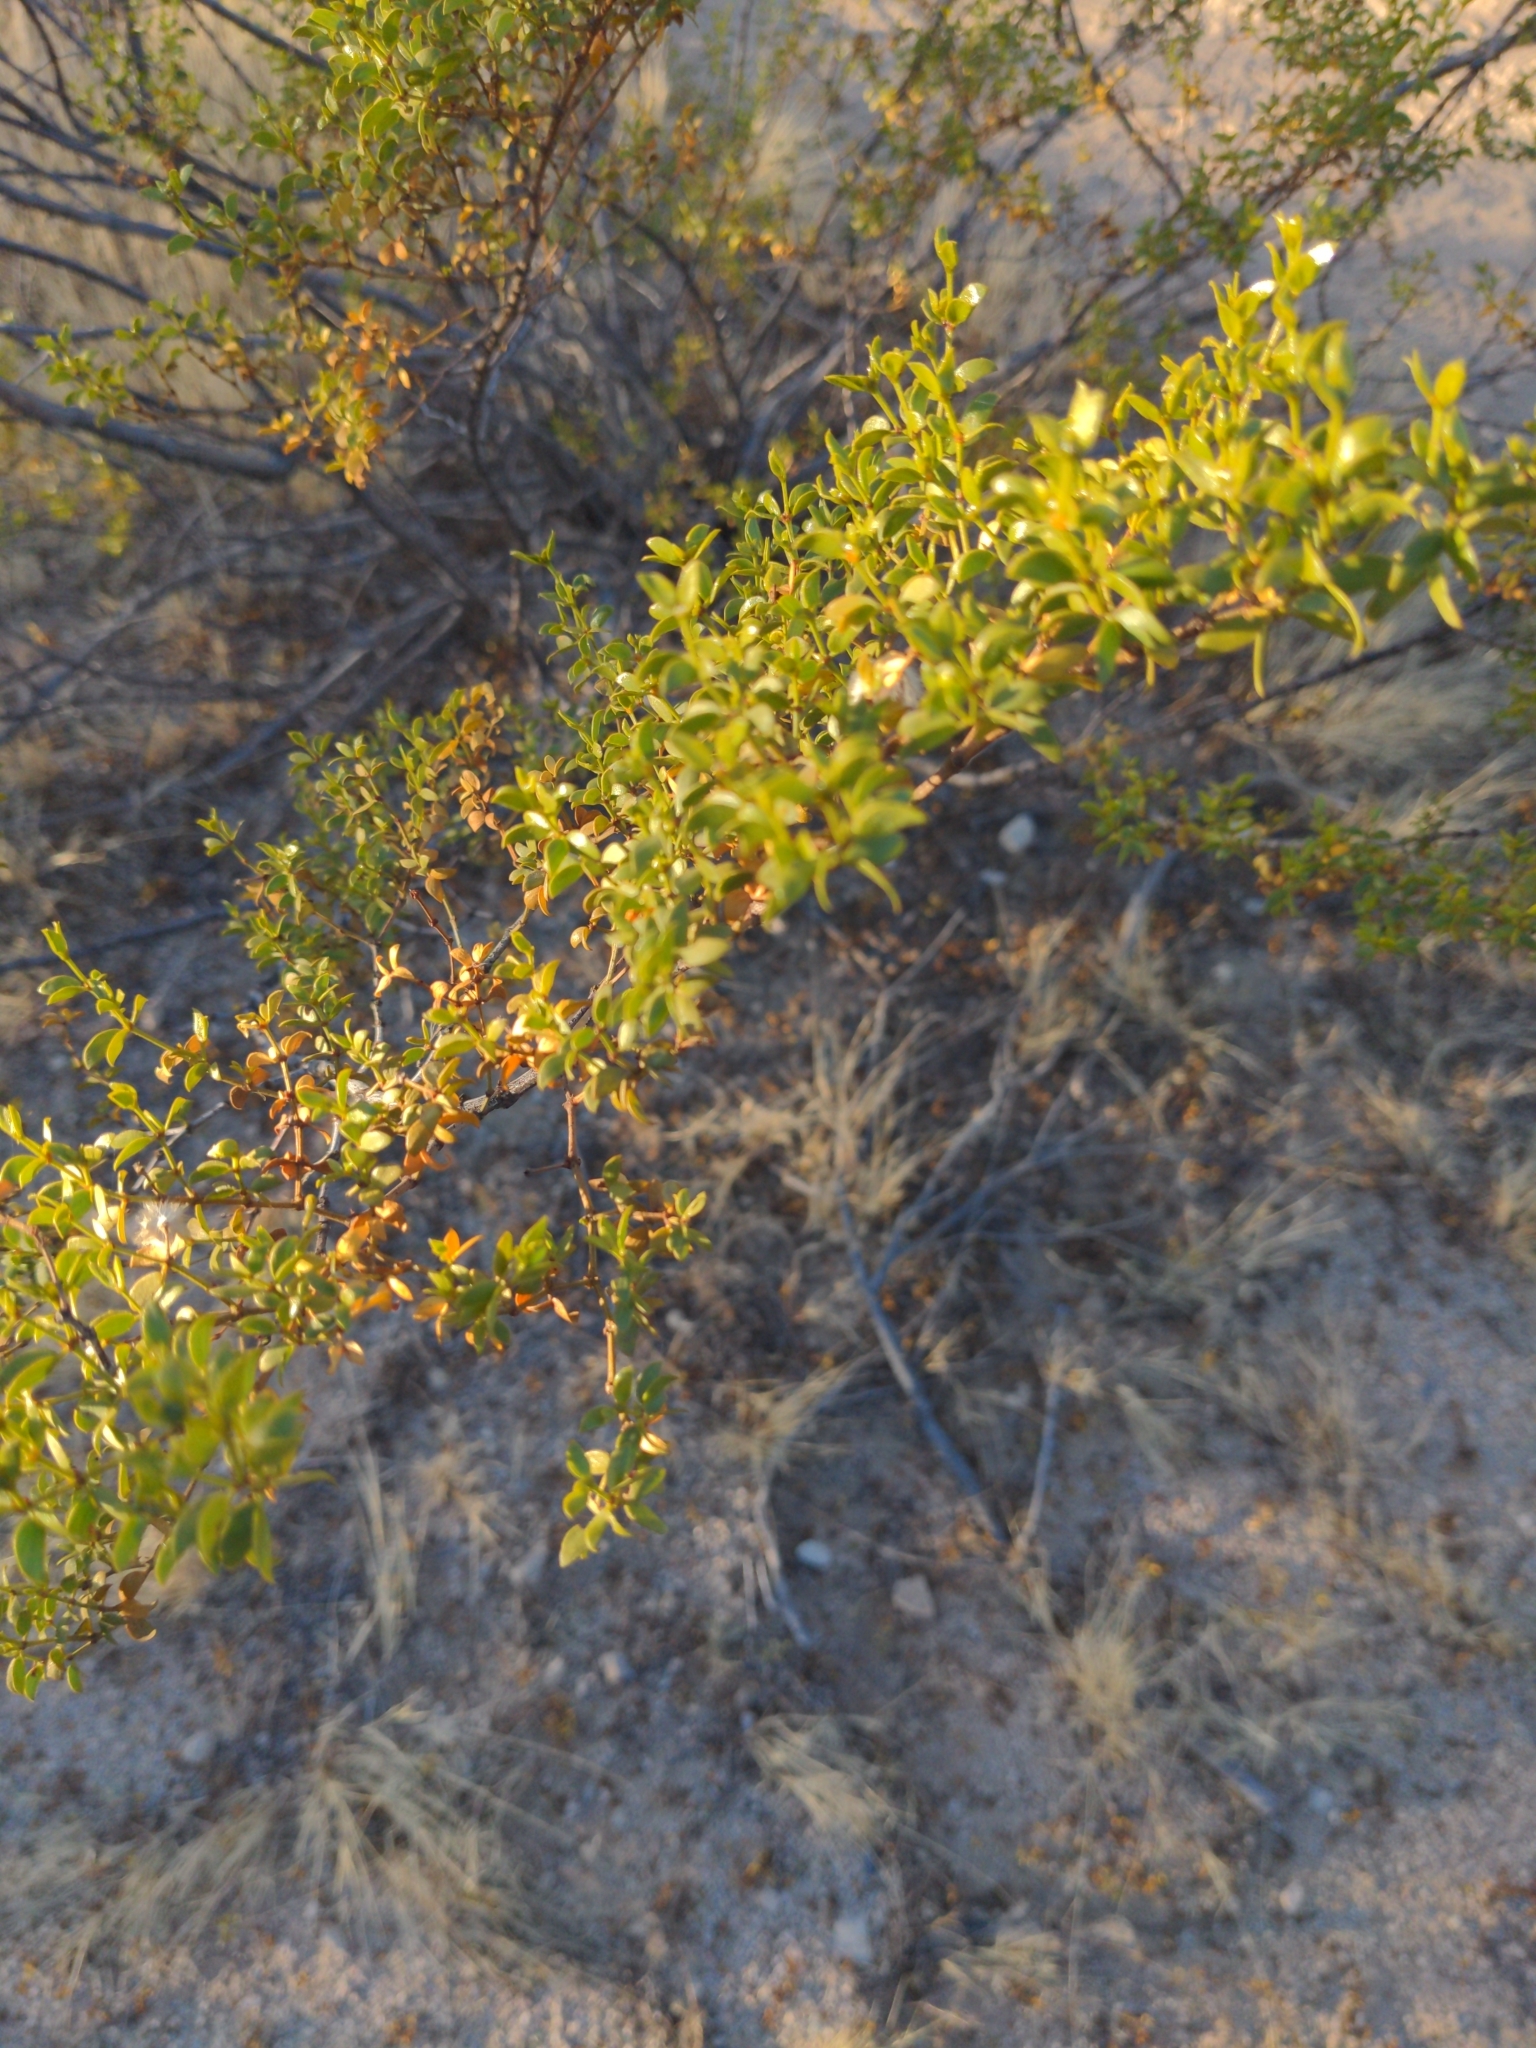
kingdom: Plantae
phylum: Tracheophyta
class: Magnoliopsida
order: Zygophyllales
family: Zygophyllaceae
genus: Larrea
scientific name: Larrea tridentata
